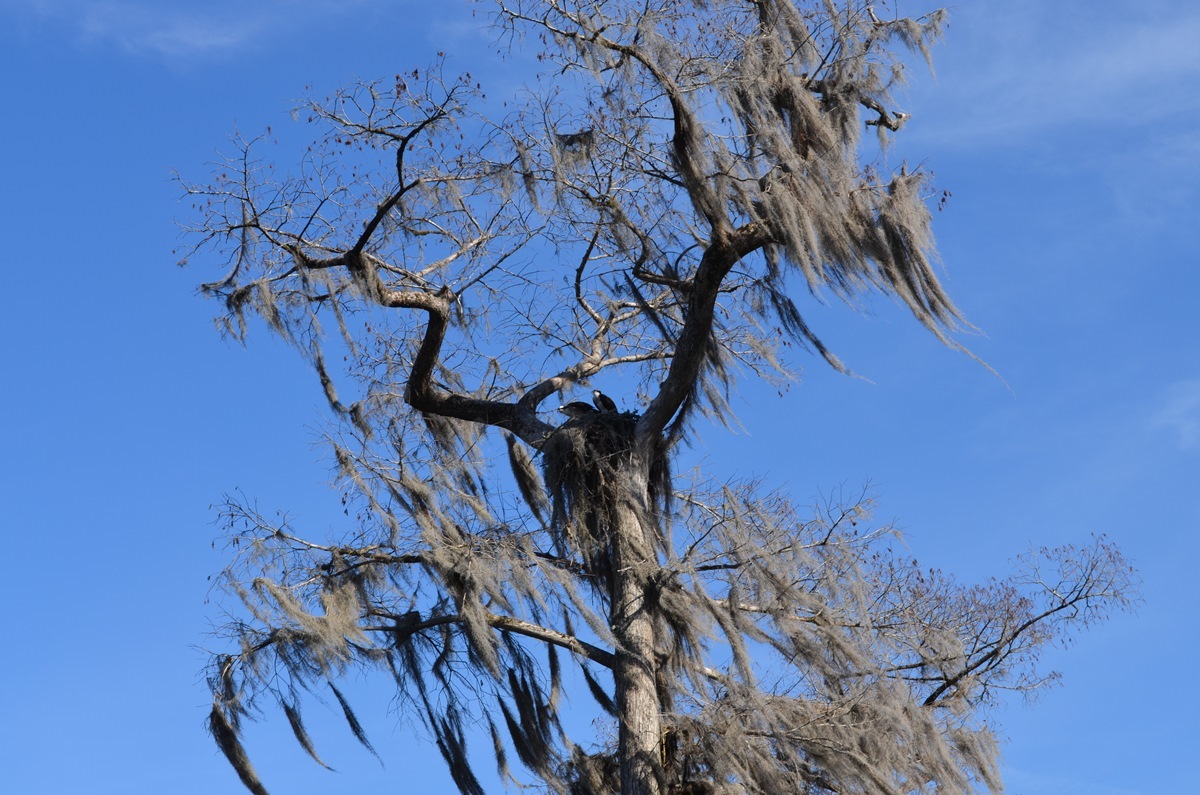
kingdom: Animalia
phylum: Chordata
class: Aves
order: Accipitriformes
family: Pandionidae
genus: Pandion
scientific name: Pandion haliaetus
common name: Osprey
